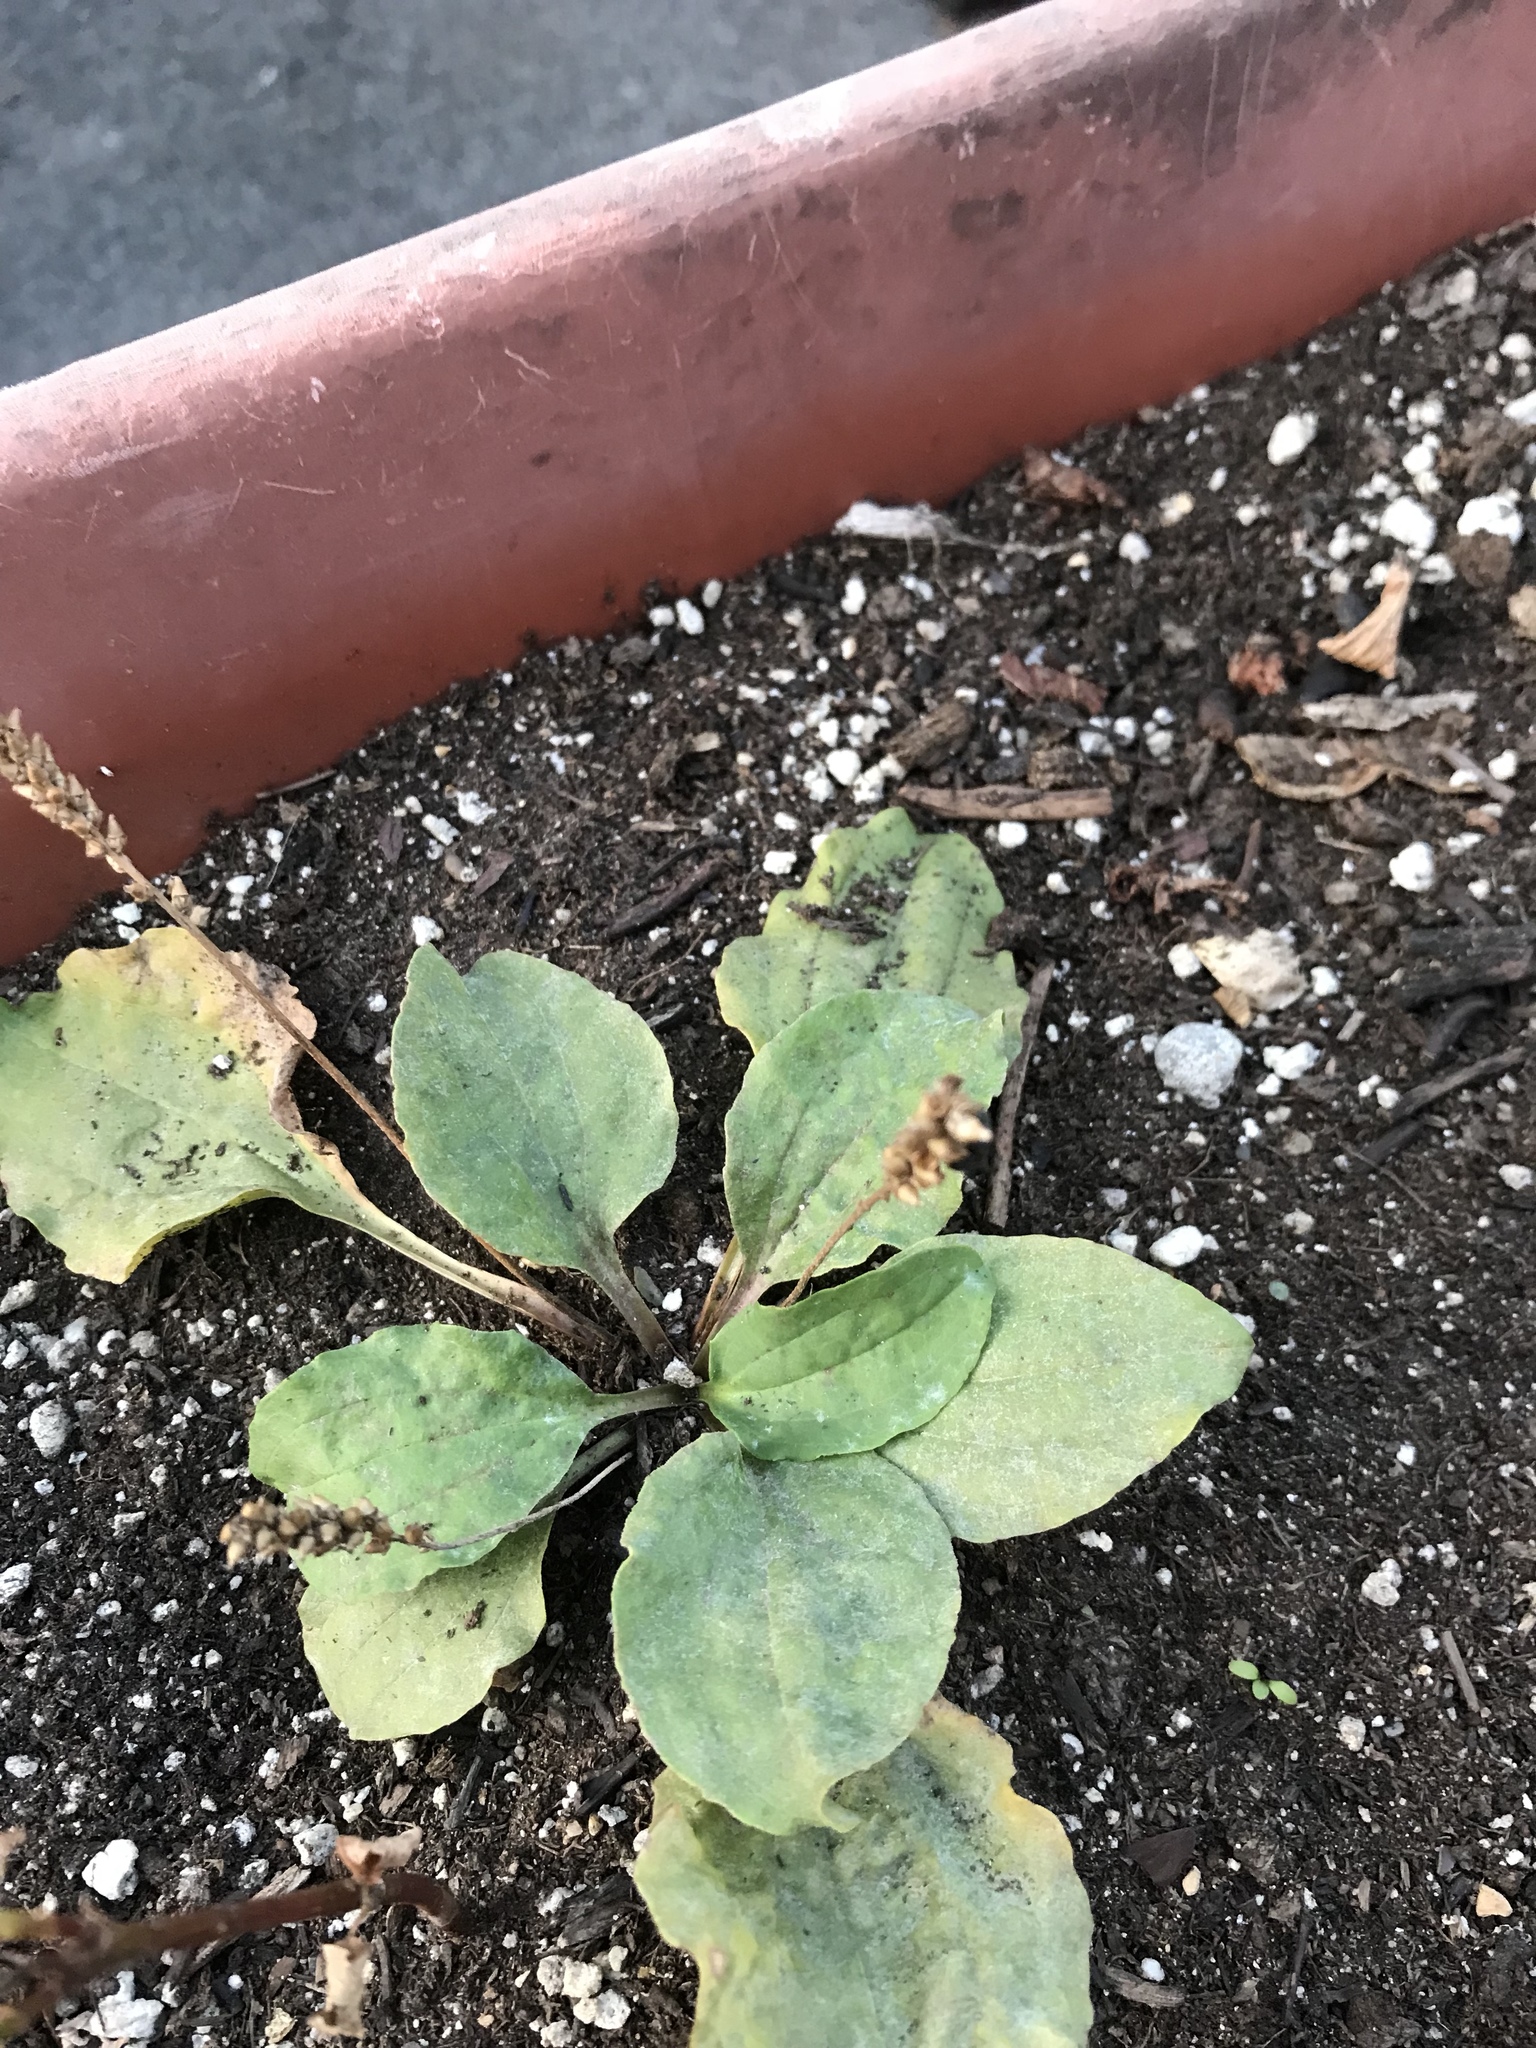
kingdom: Plantae
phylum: Tracheophyta
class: Magnoliopsida
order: Lamiales
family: Plantaginaceae
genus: Plantago
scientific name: Plantago major
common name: Common plantain
